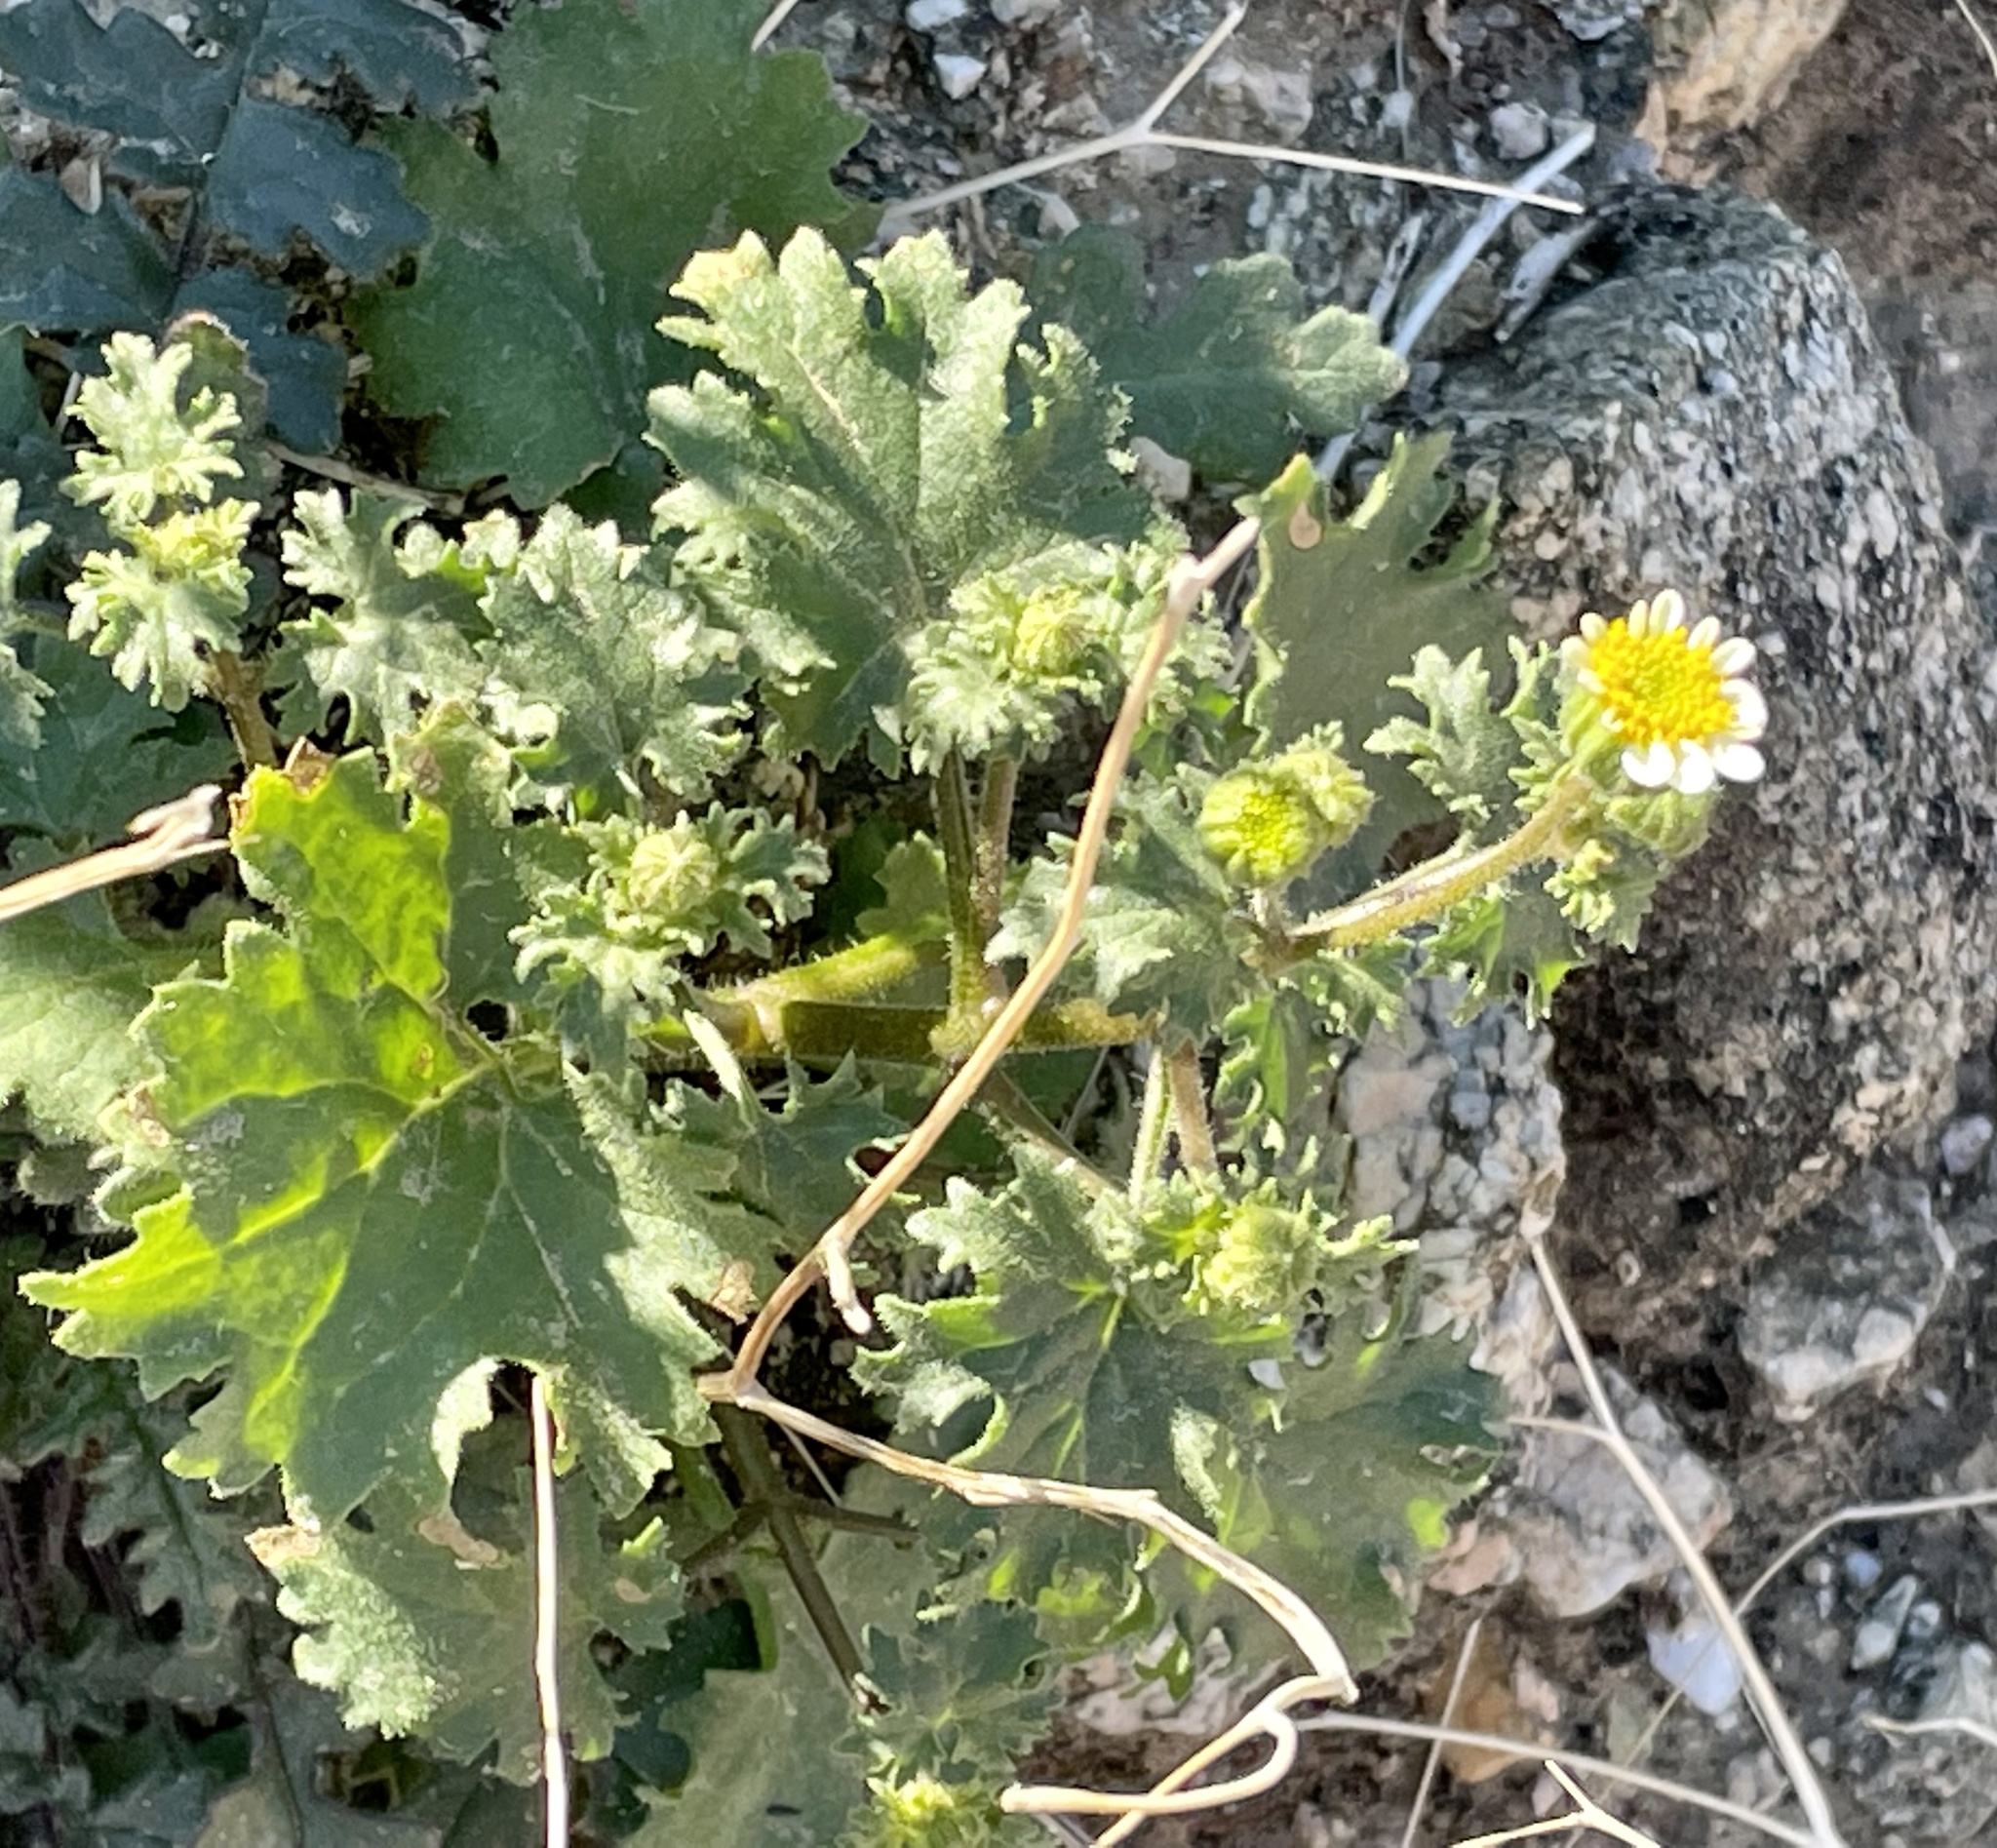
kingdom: Plantae
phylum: Tracheophyta
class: Magnoliopsida
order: Asterales
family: Asteraceae
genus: Laphamia
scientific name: Laphamia emoryi
